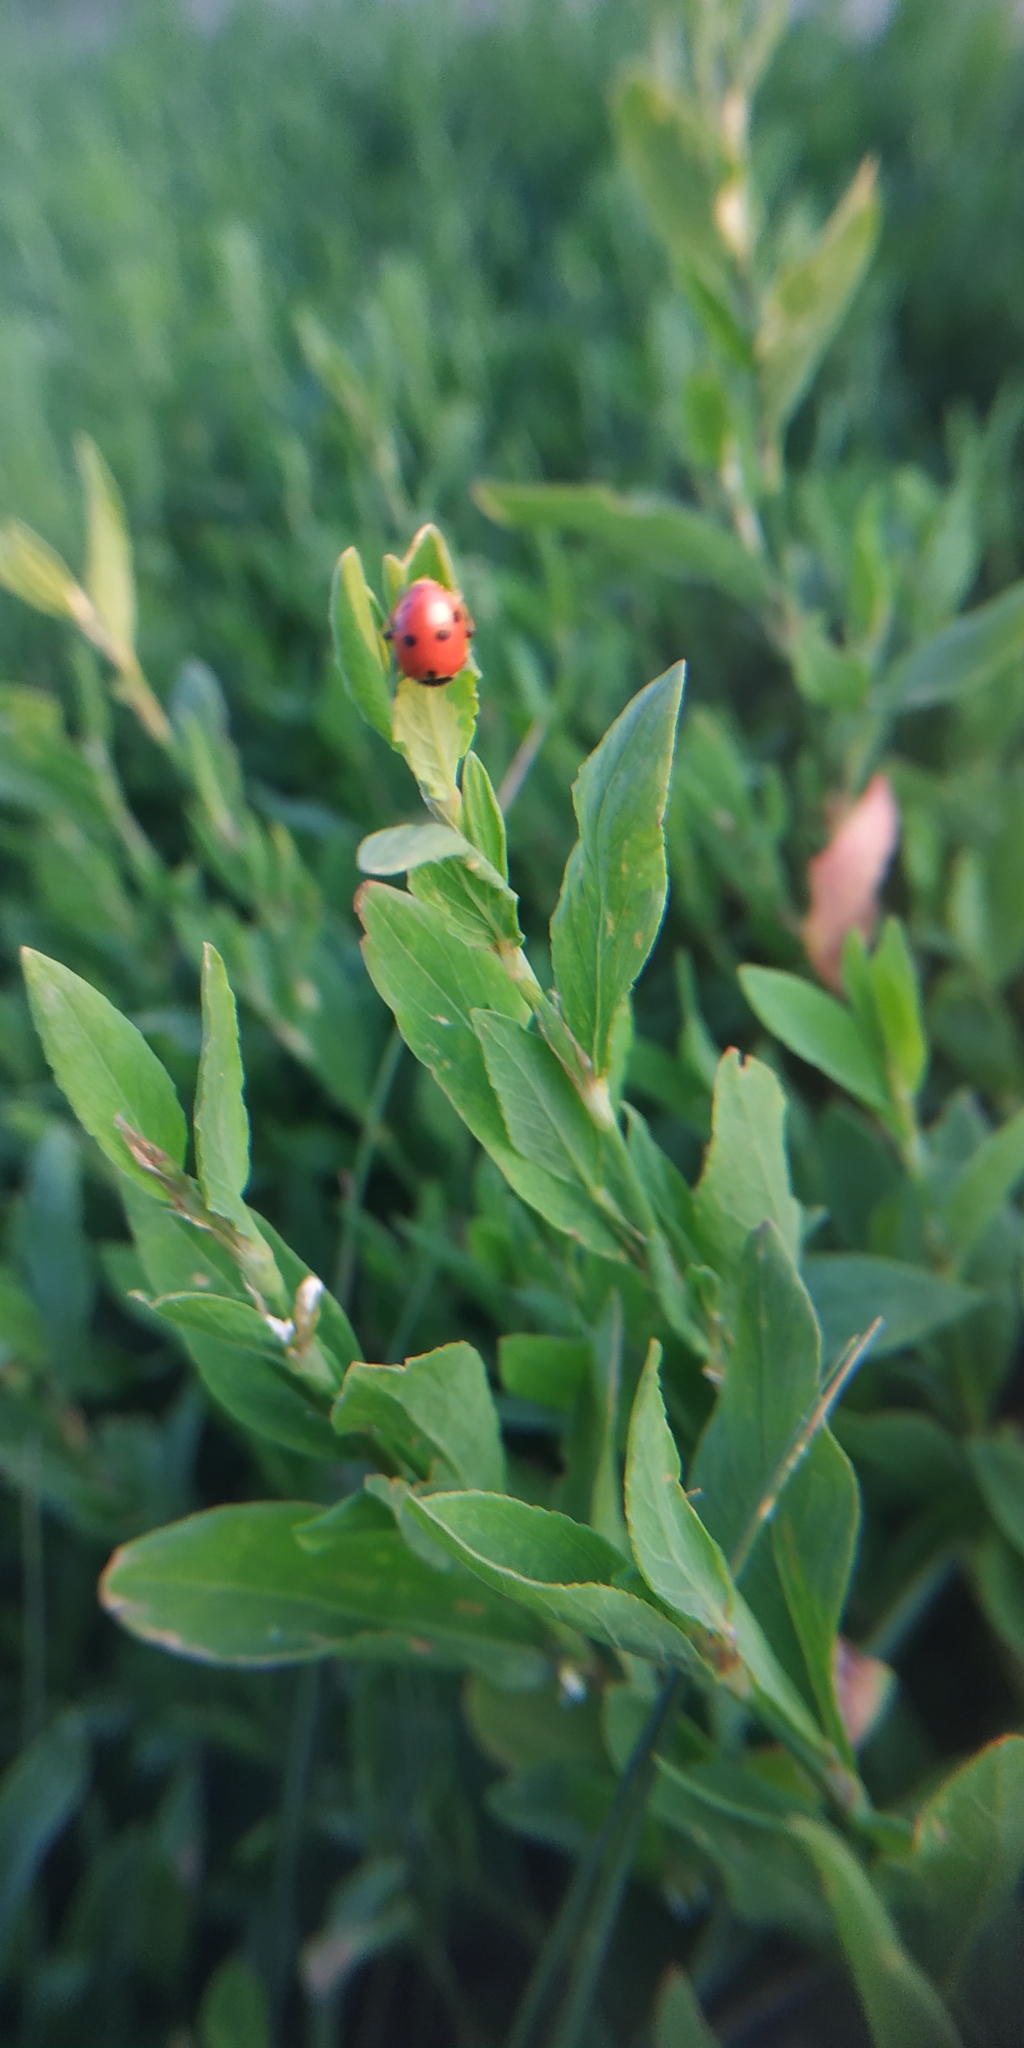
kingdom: Animalia
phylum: Arthropoda
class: Insecta
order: Coleoptera
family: Coccinellidae
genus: Hippodamia
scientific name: Hippodamia variegata
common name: Ladybird beetle
